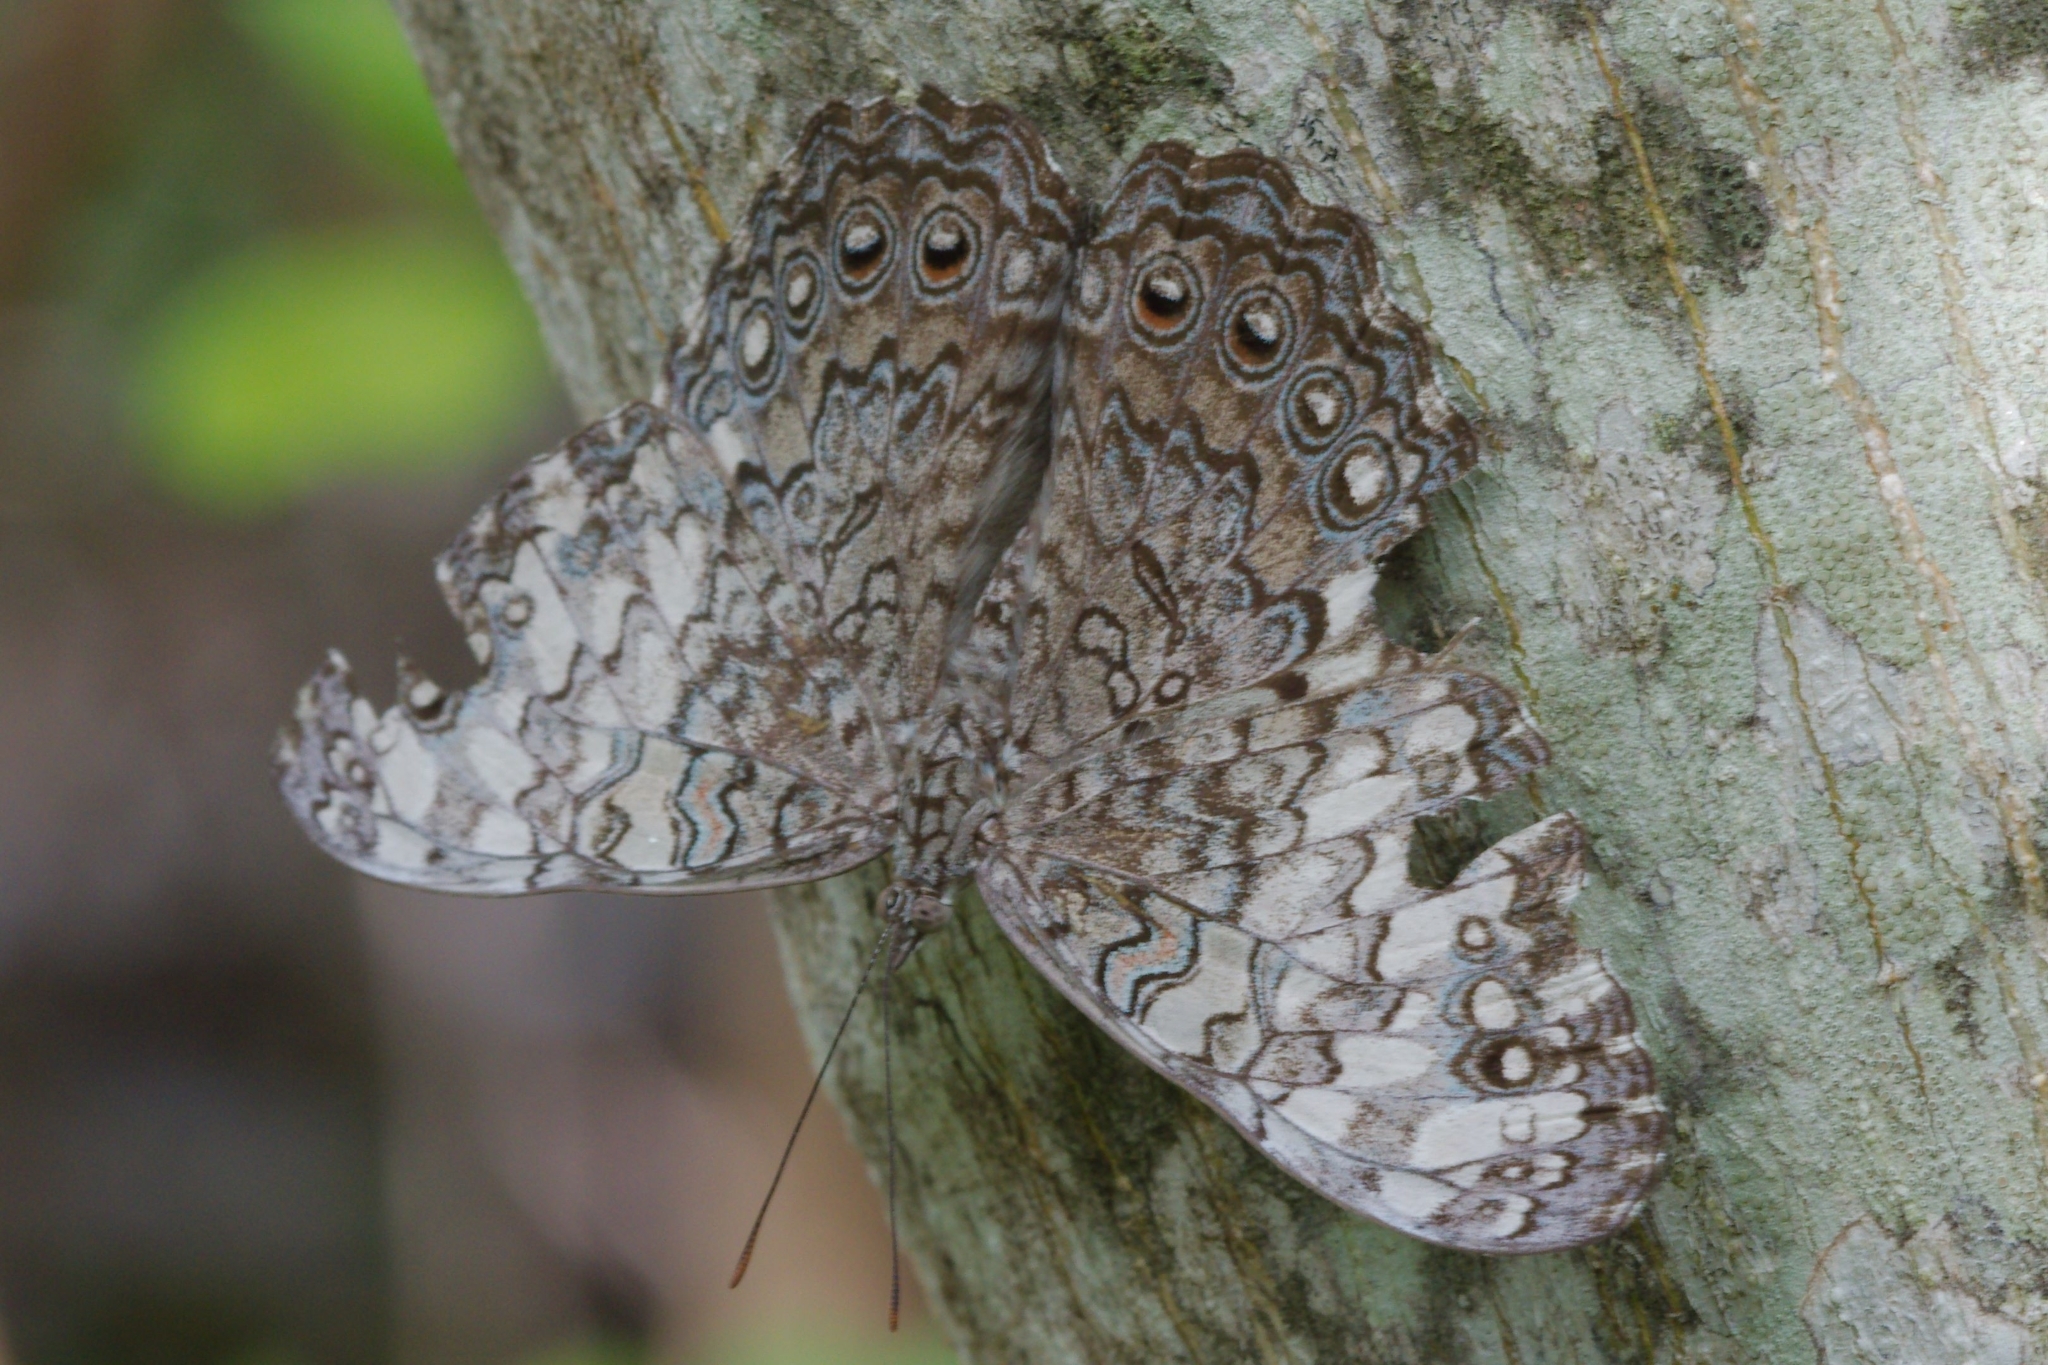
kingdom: Animalia
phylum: Arthropoda
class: Insecta
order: Lepidoptera
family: Nymphalidae
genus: Hamadryas
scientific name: Hamadryas februa
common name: Gray cracker
